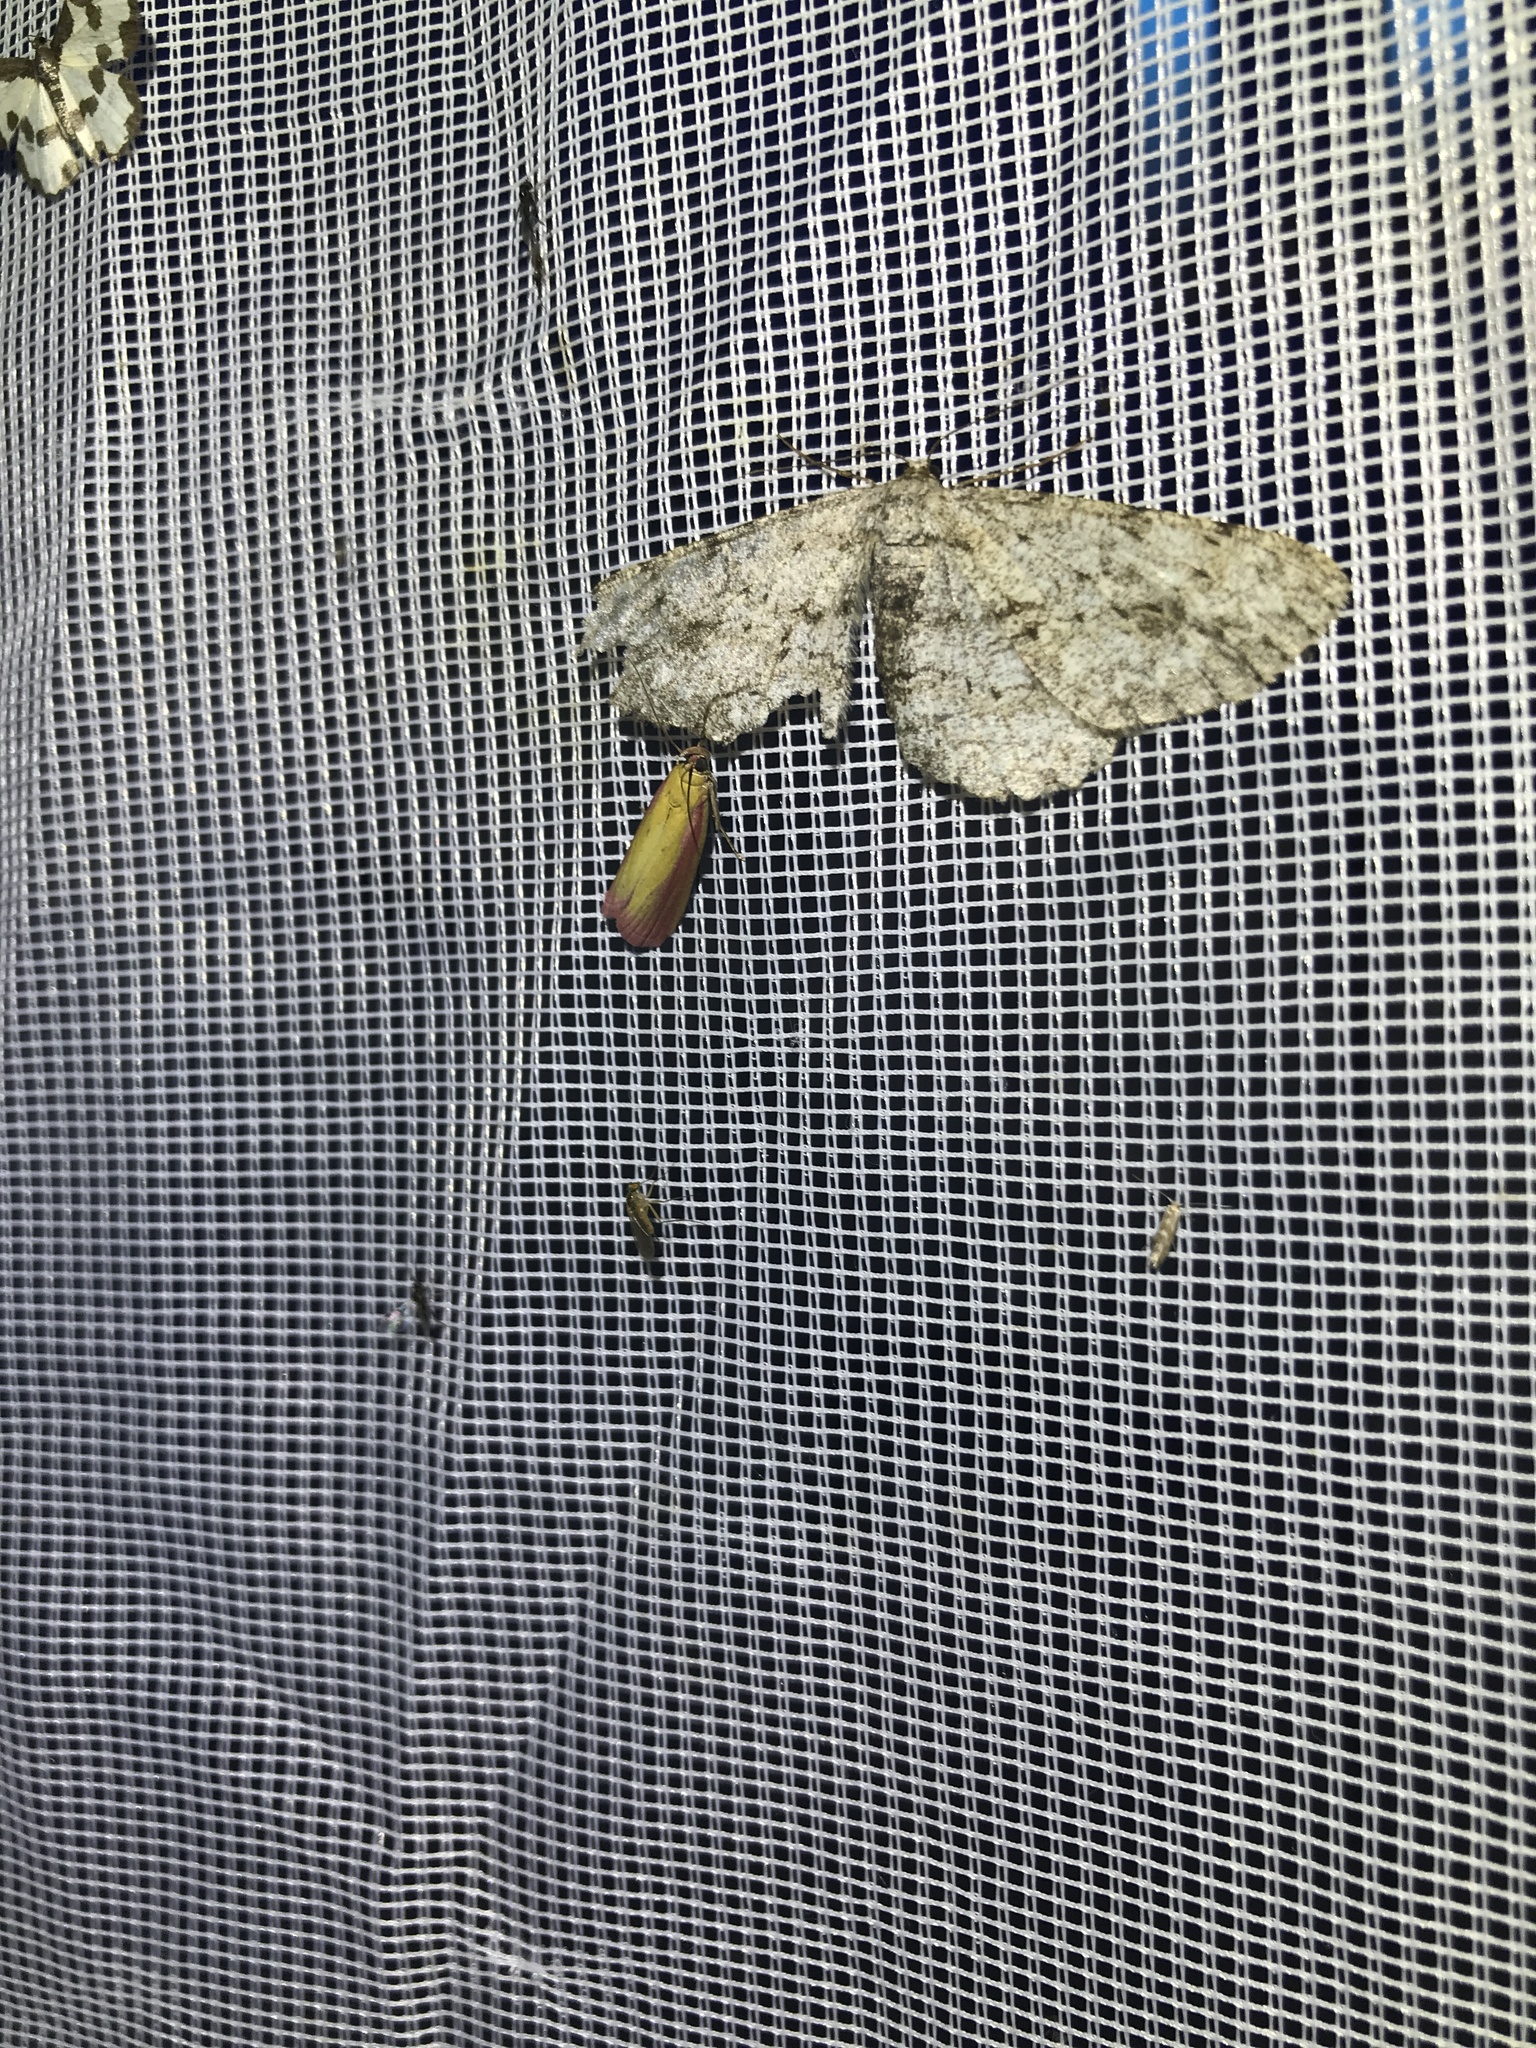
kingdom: Animalia
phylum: Arthropoda
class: Insecta
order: Lepidoptera
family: Pyralidae
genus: Oncocera
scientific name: Oncocera semirubella
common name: Rosy-striped knot-horn
